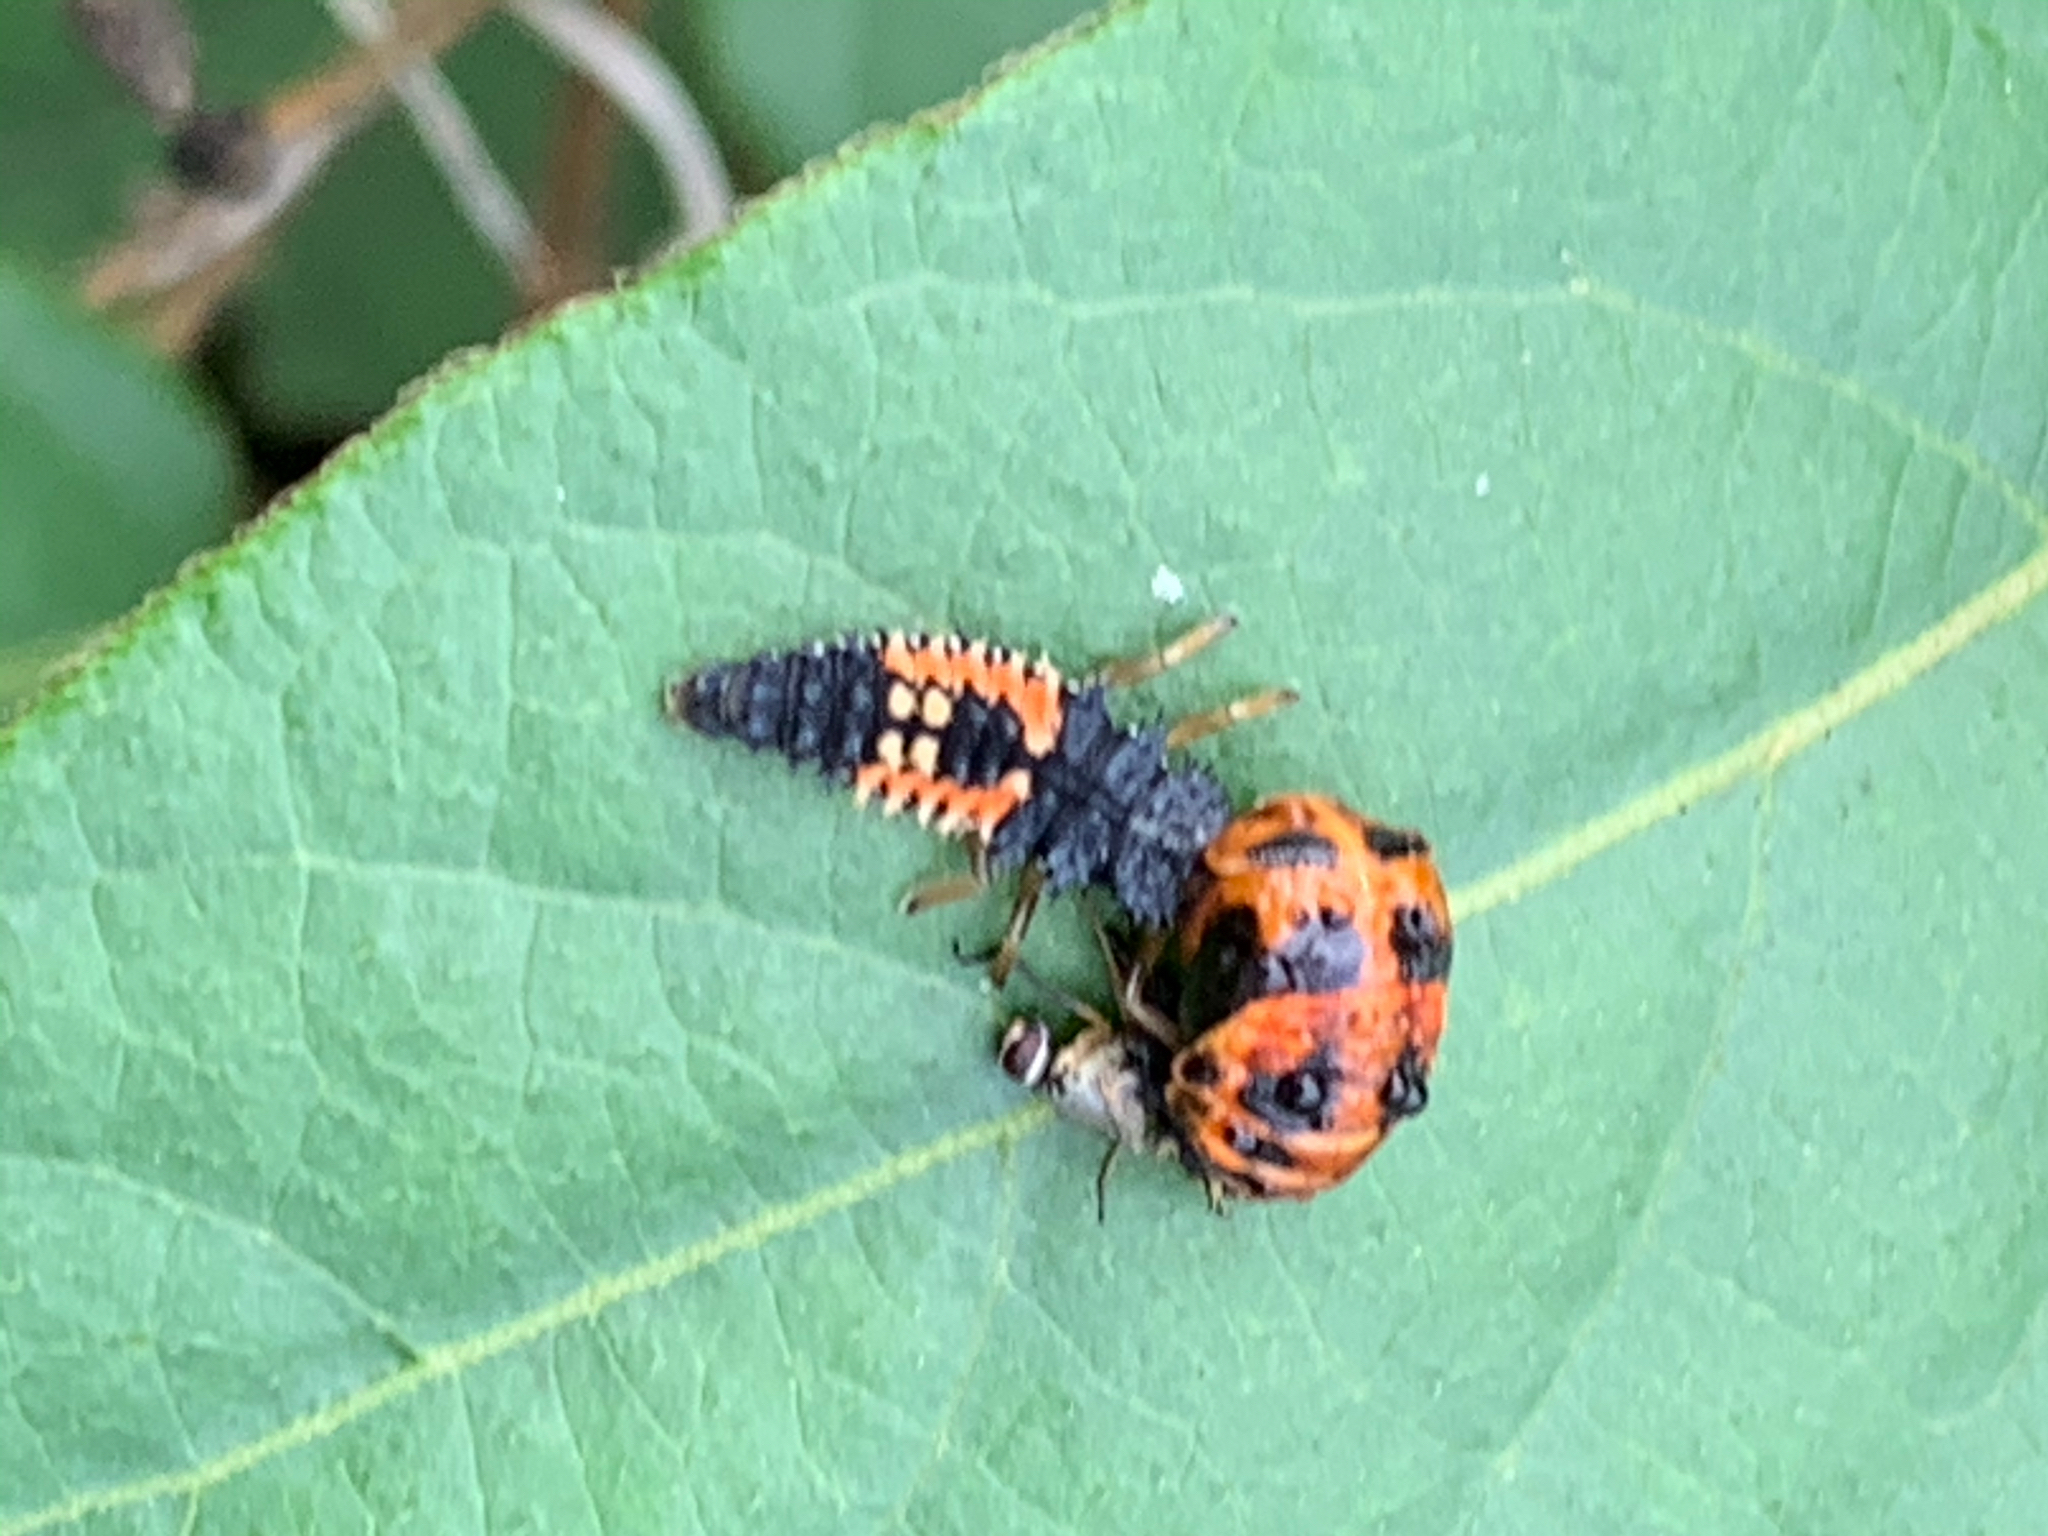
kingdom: Animalia
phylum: Arthropoda
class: Insecta
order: Coleoptera
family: Coccinellidae
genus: Harmonia
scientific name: Harmonia axyridis
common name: Harlequin ladybird
